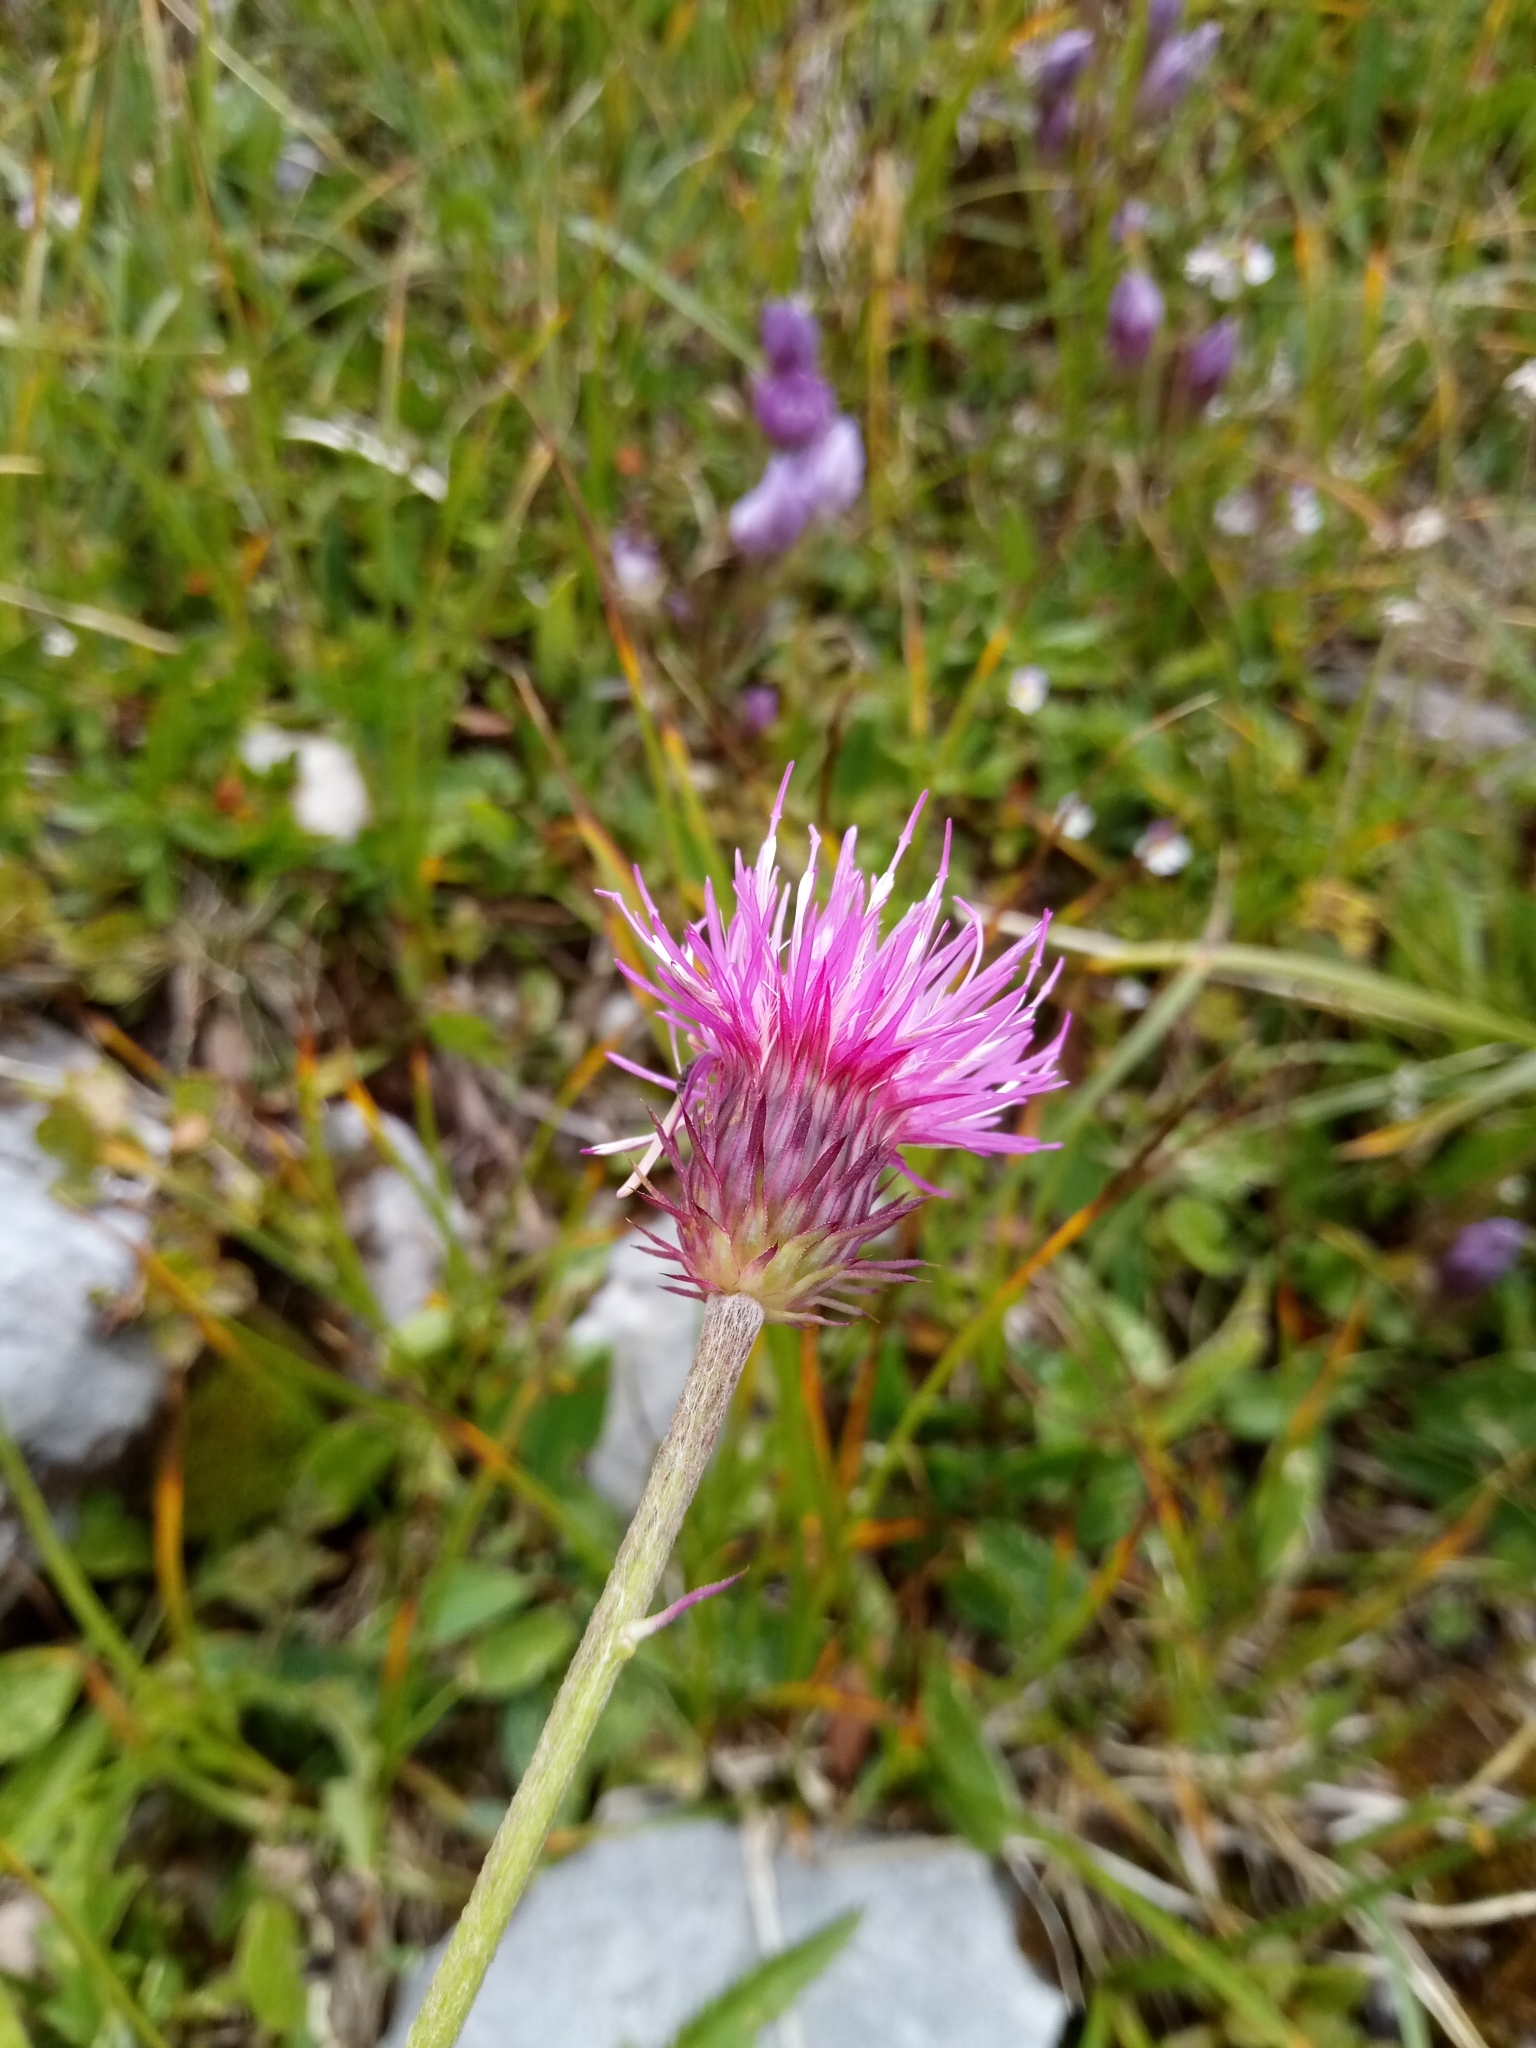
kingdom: Plantae
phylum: Tracheophyta
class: Magnoliopsida
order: Asterales
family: Asteraceae
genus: Carduus
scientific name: Carduus defloratus
